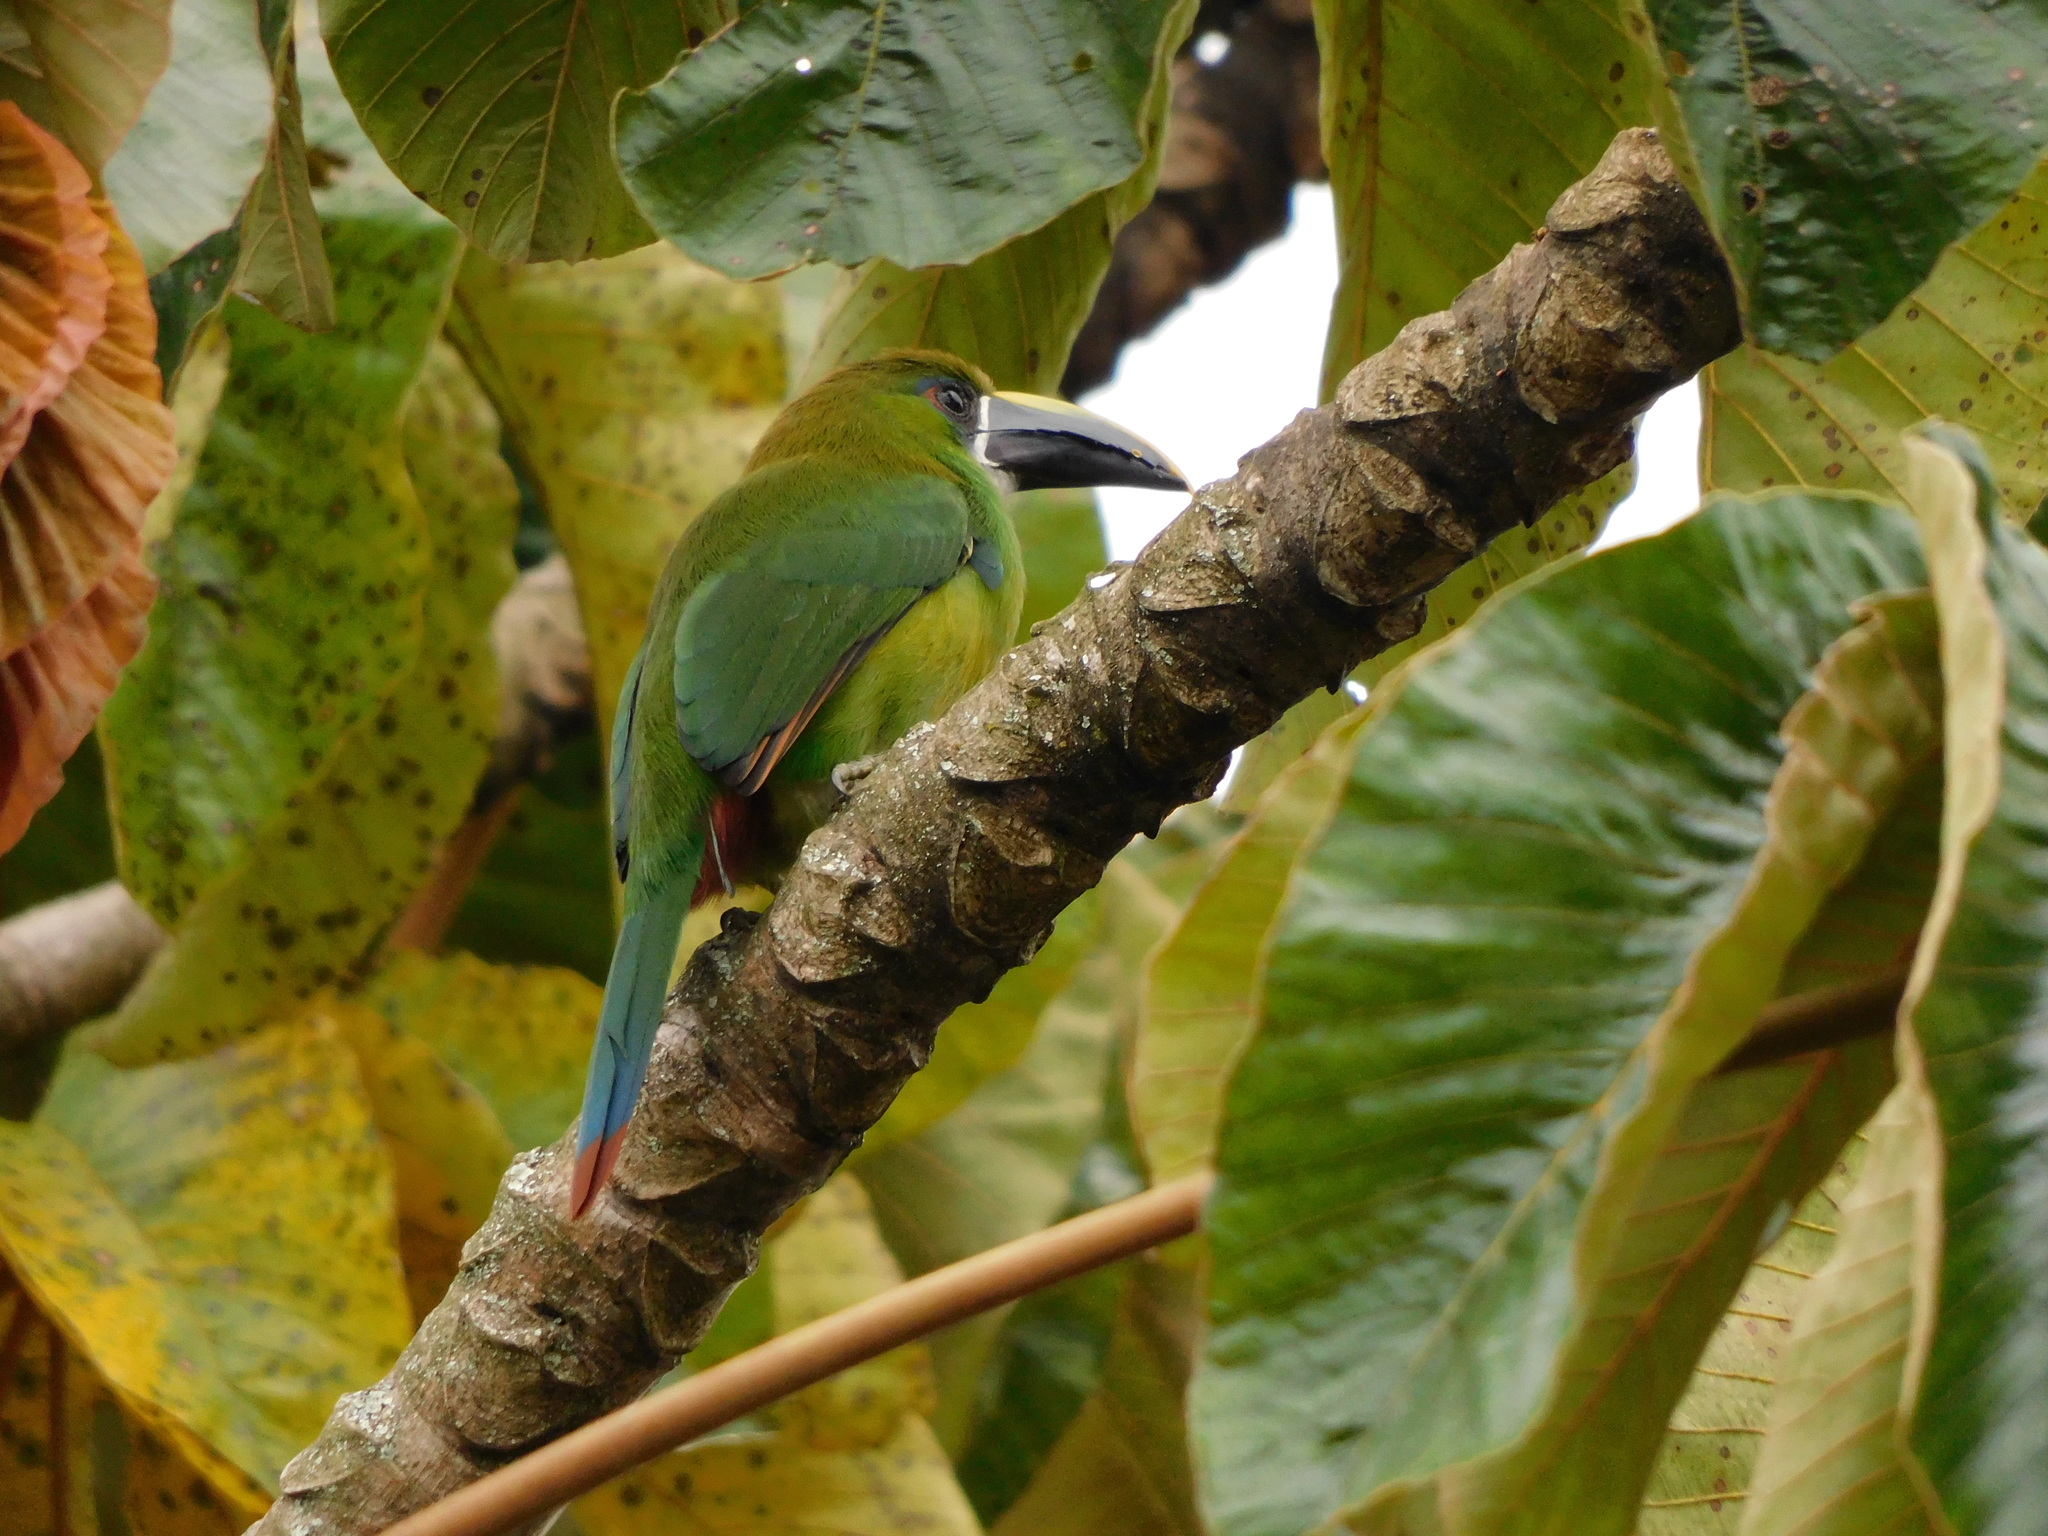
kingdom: Animalia
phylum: Chordata
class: Aves
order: Piciformes
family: Ramphastidae
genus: Aulacorhynchus
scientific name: Aulacorhynchus albivitta
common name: White-throated toucanet
